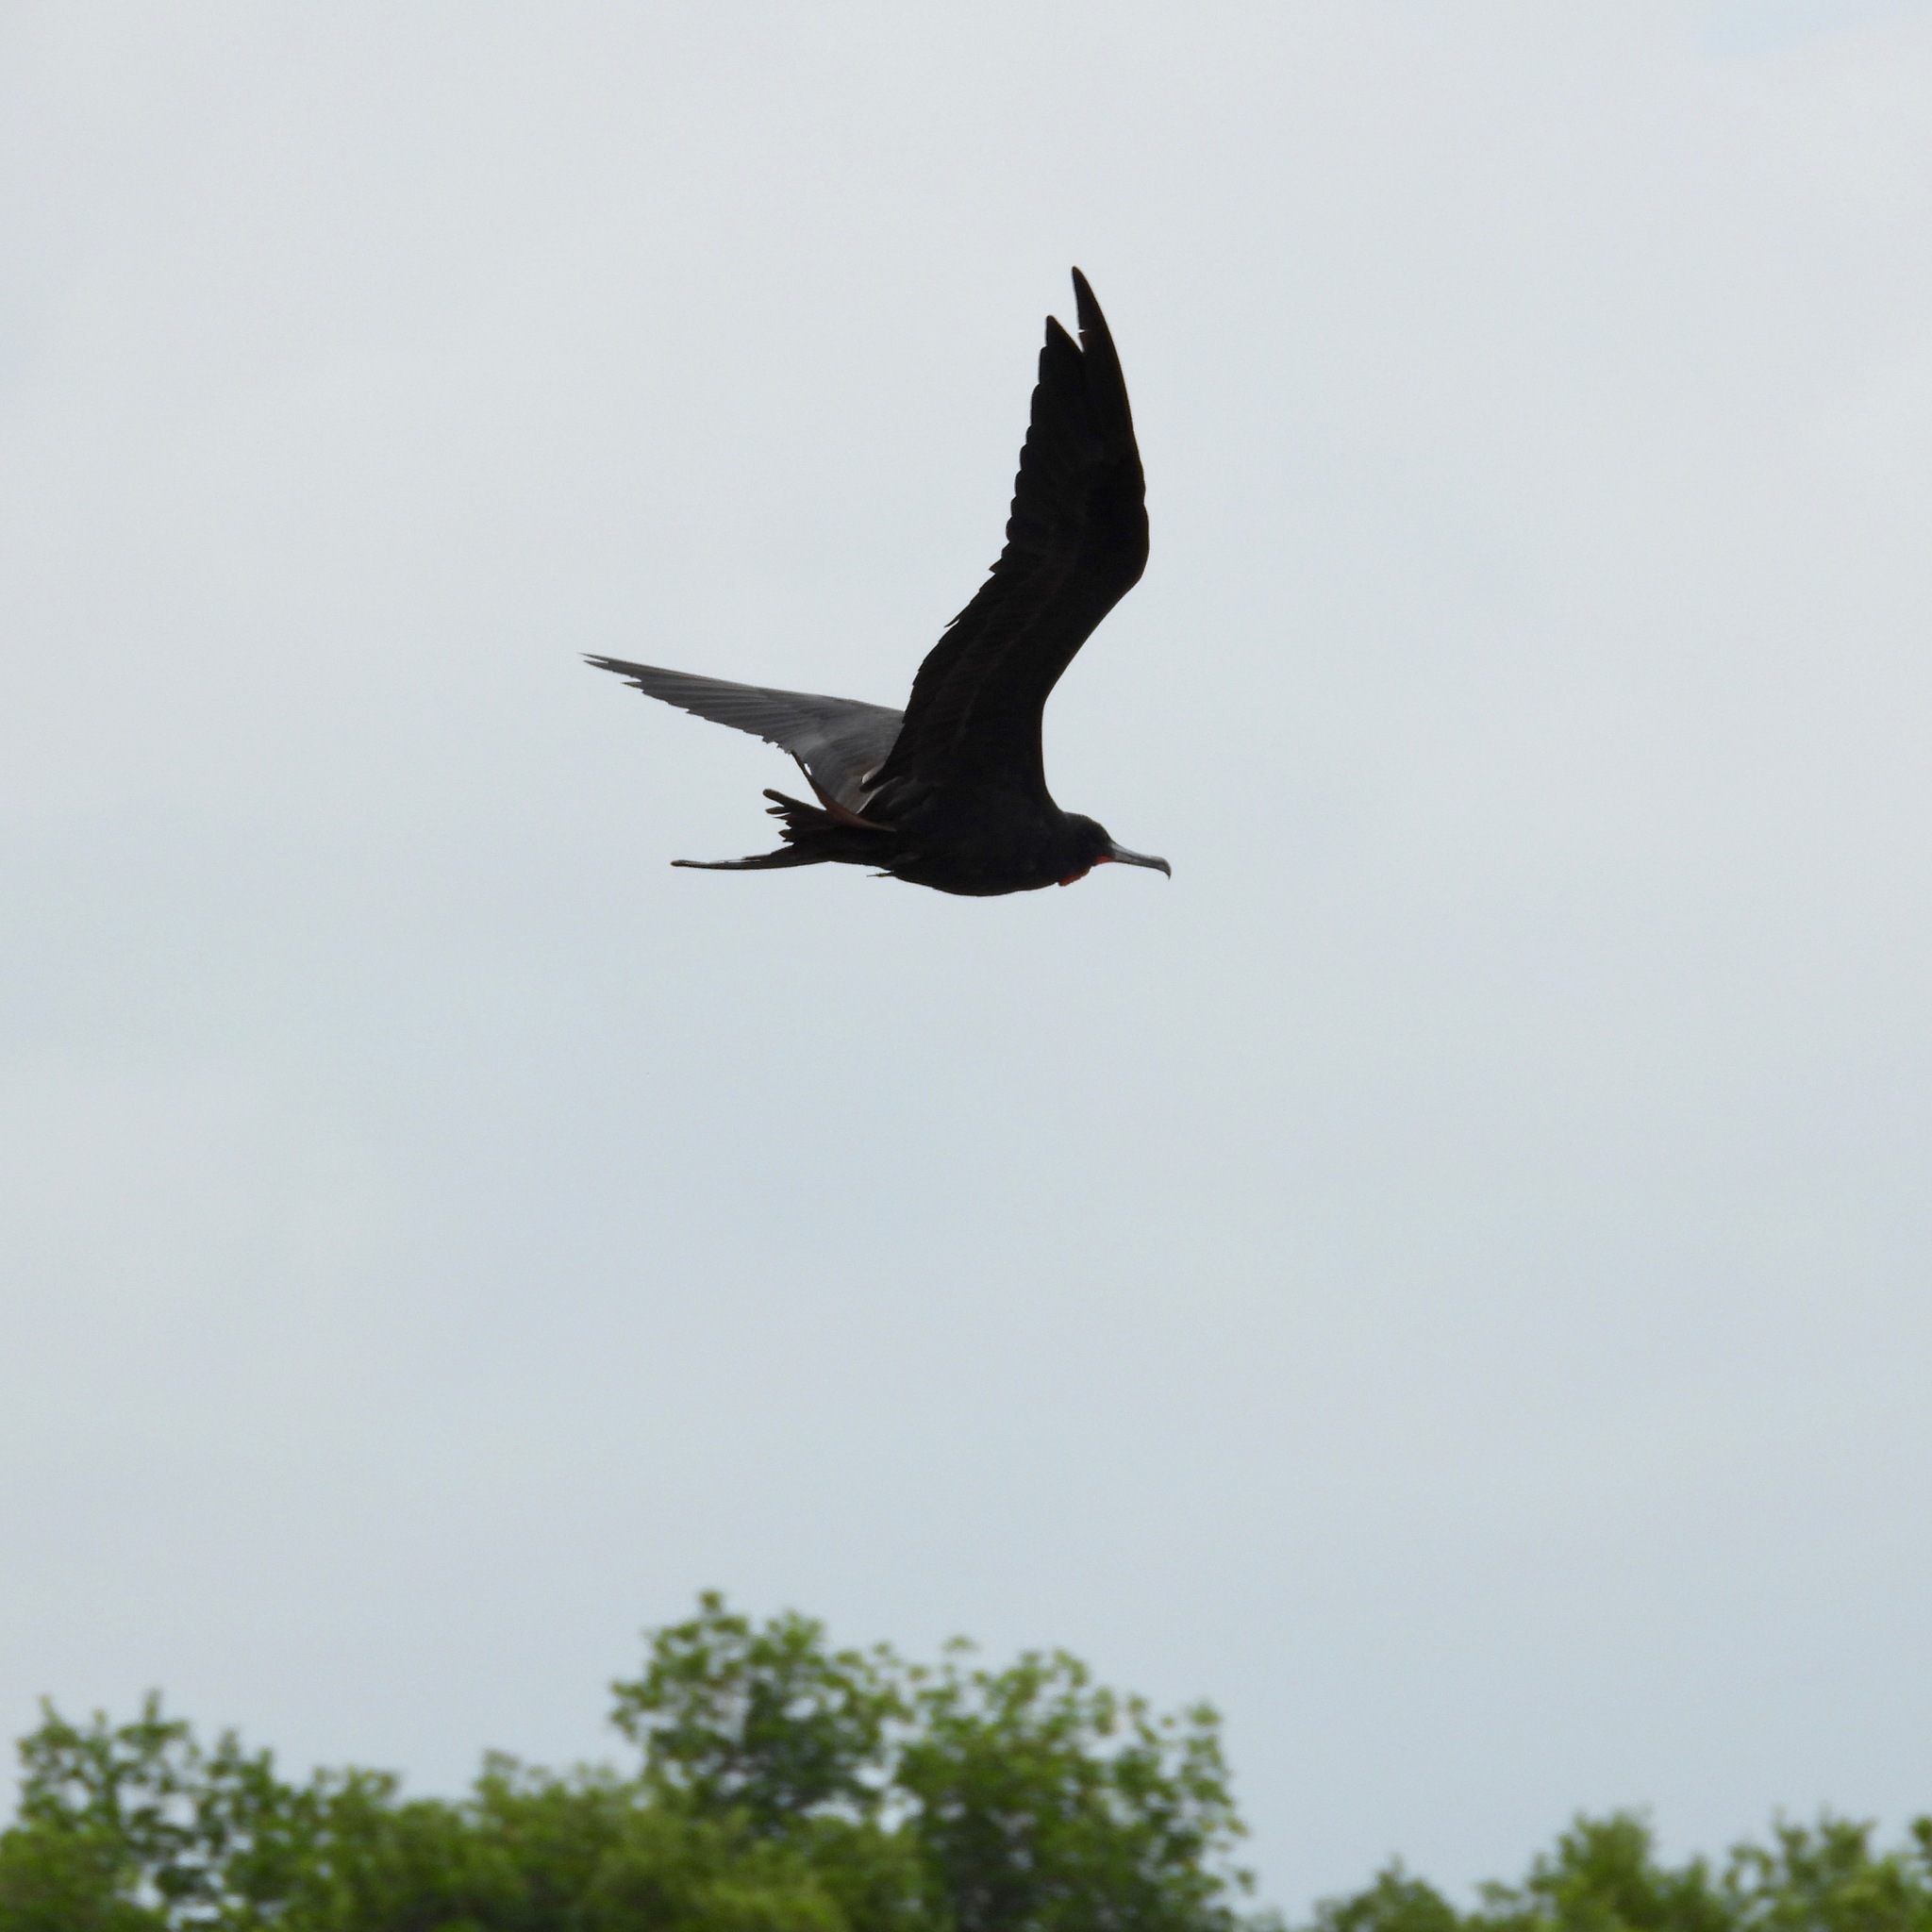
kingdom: Animalia
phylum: Chordata
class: Aves
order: Suliformes
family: Fregatidae
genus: Fregata
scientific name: Fregata magnificens
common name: Magnificent frigatebird
